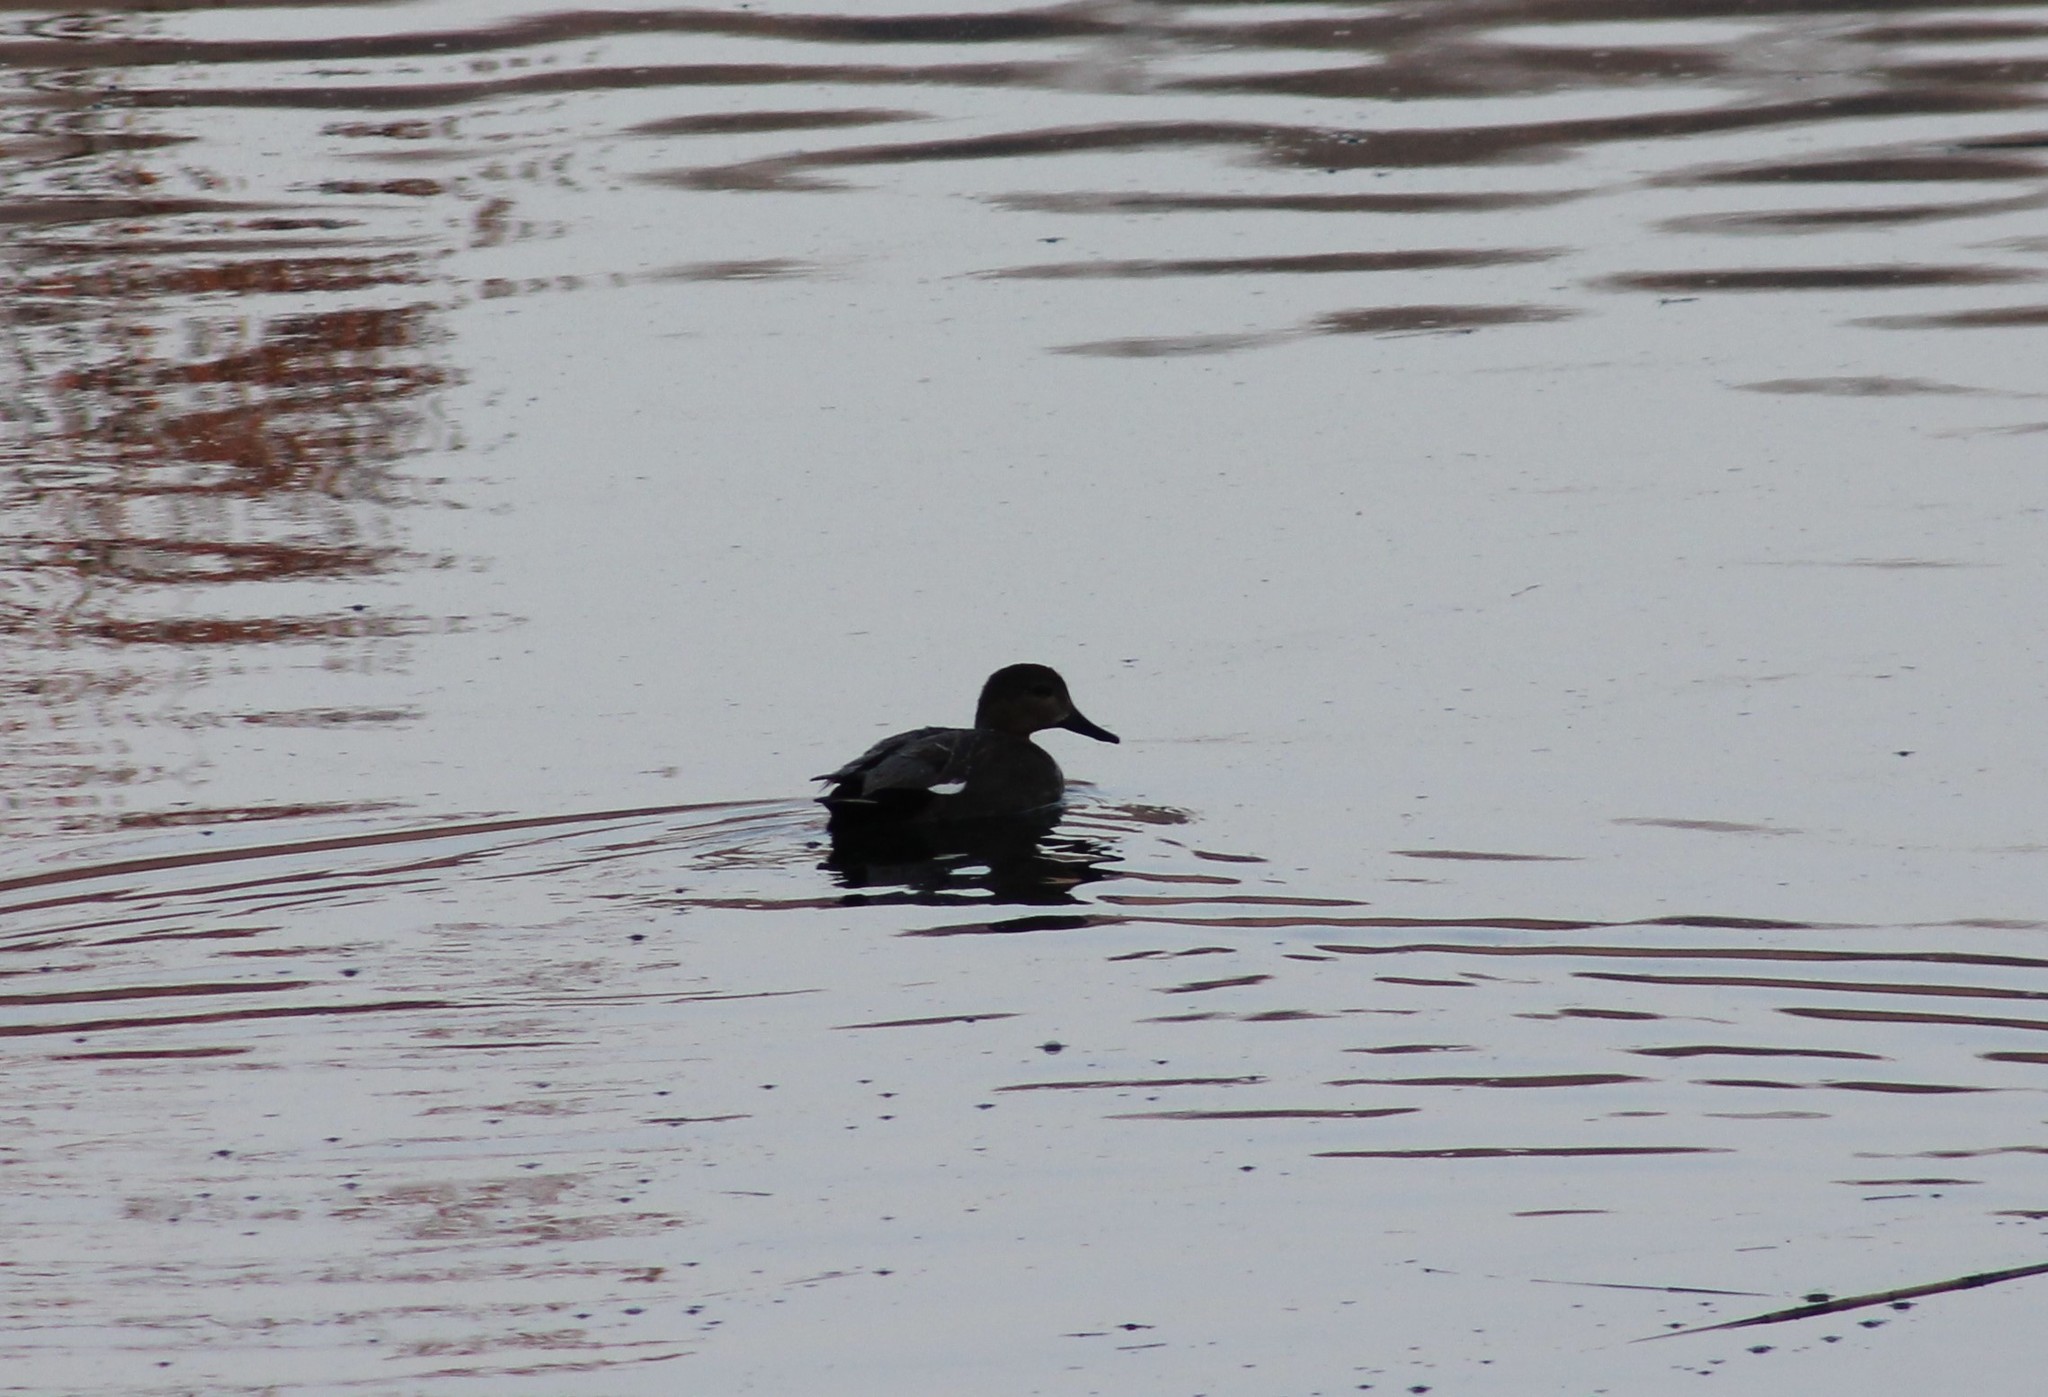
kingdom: Animalia
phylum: Chordata
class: Aves
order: Anseriformes
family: Anatidae
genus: Mareca
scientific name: Mareca strepera
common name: Gadwall
